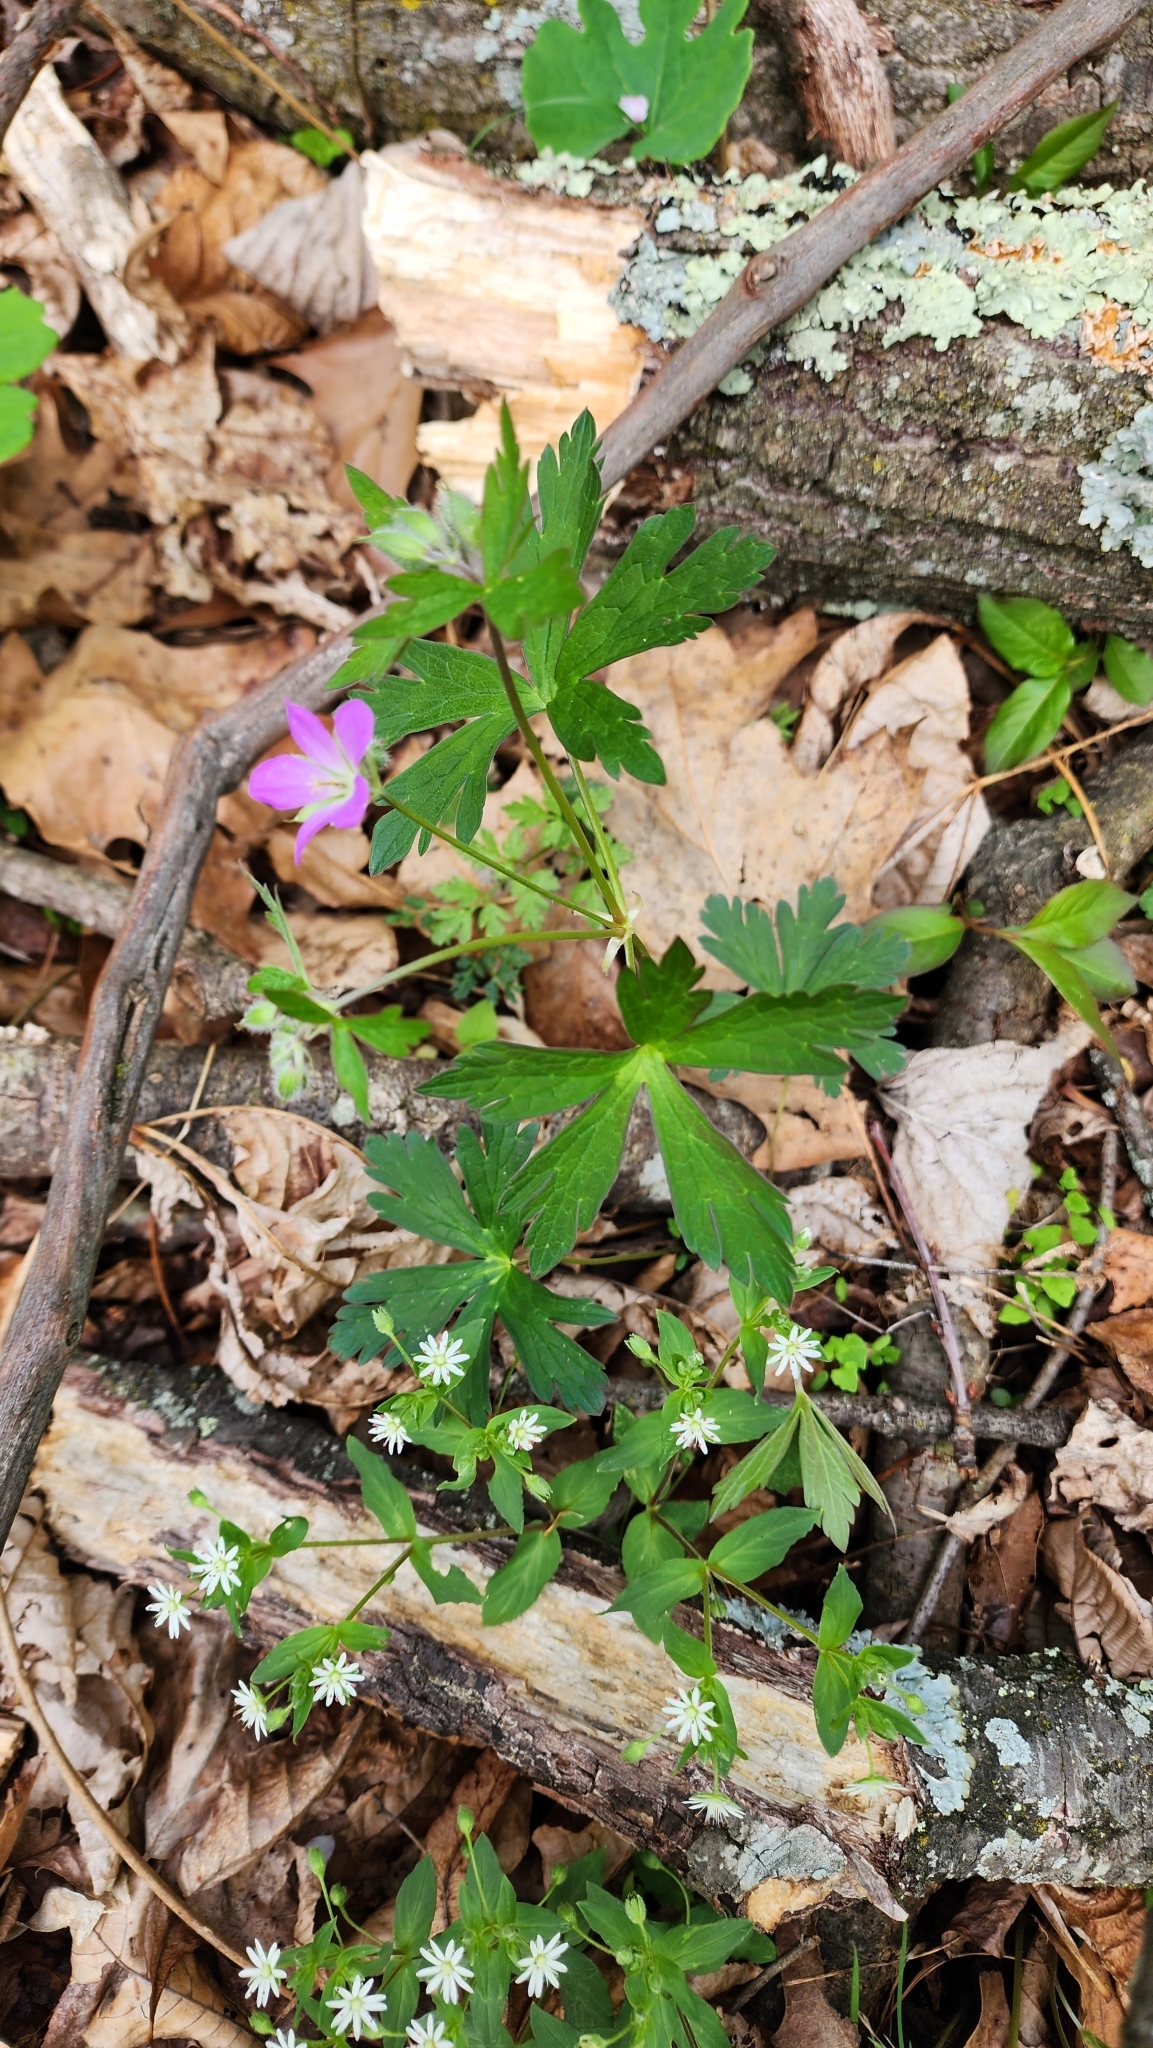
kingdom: Plantae
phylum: Tracheophyta
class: Magnoliopsida
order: Geraniales
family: Geraniaceae
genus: Geranium
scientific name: Geranium maculatum
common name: Spotted geranium
